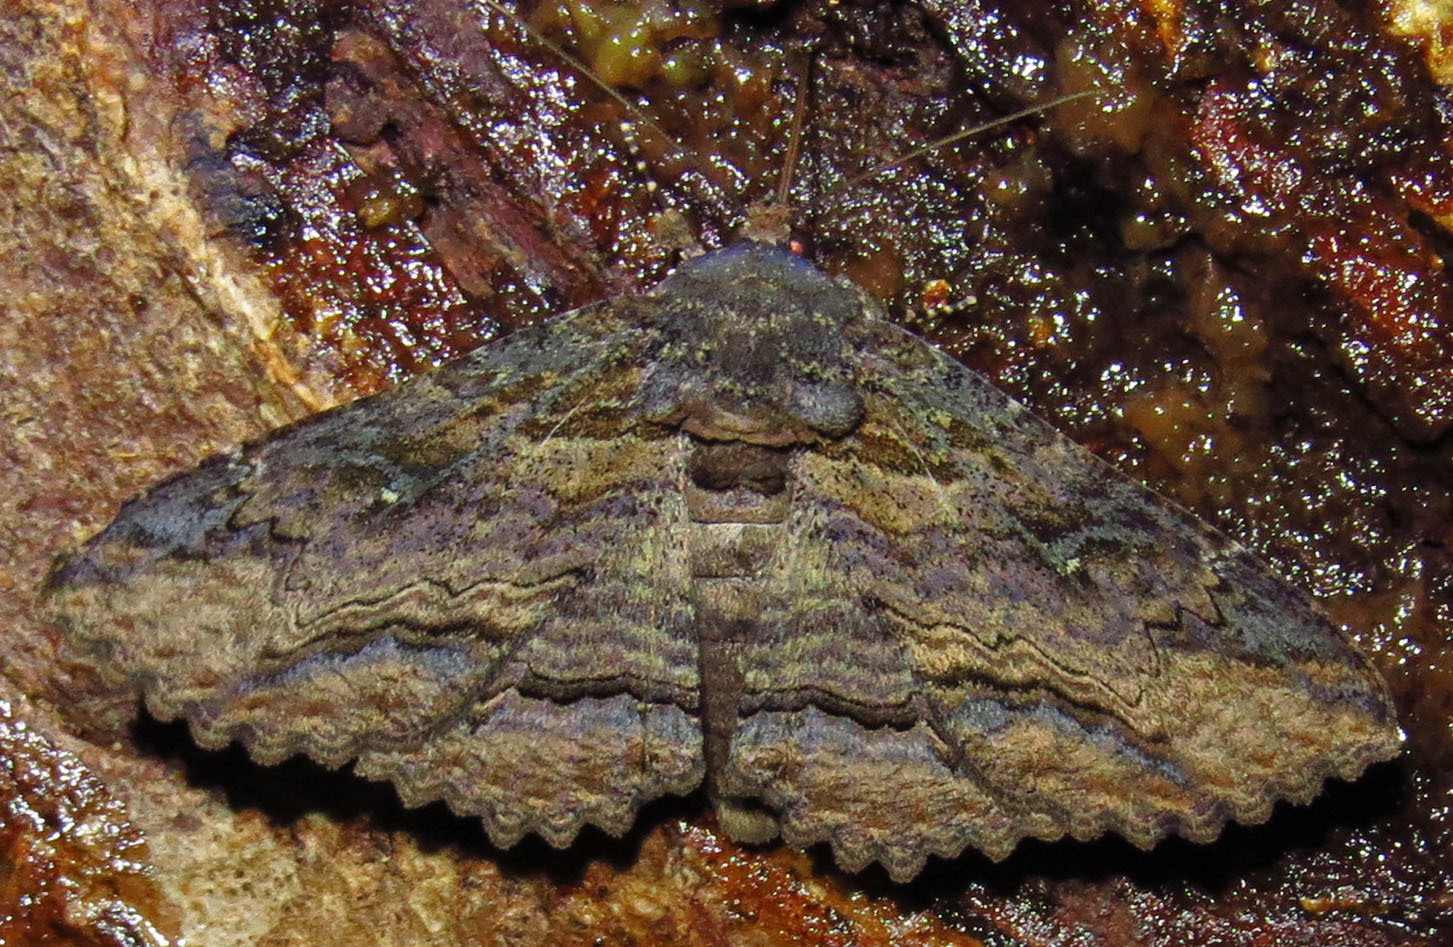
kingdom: Animalia
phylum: Arthropoda
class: Insecta
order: Lepidoptera
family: Erebidae
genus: Zale
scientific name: Zale lunata
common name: Lunate zale moth
